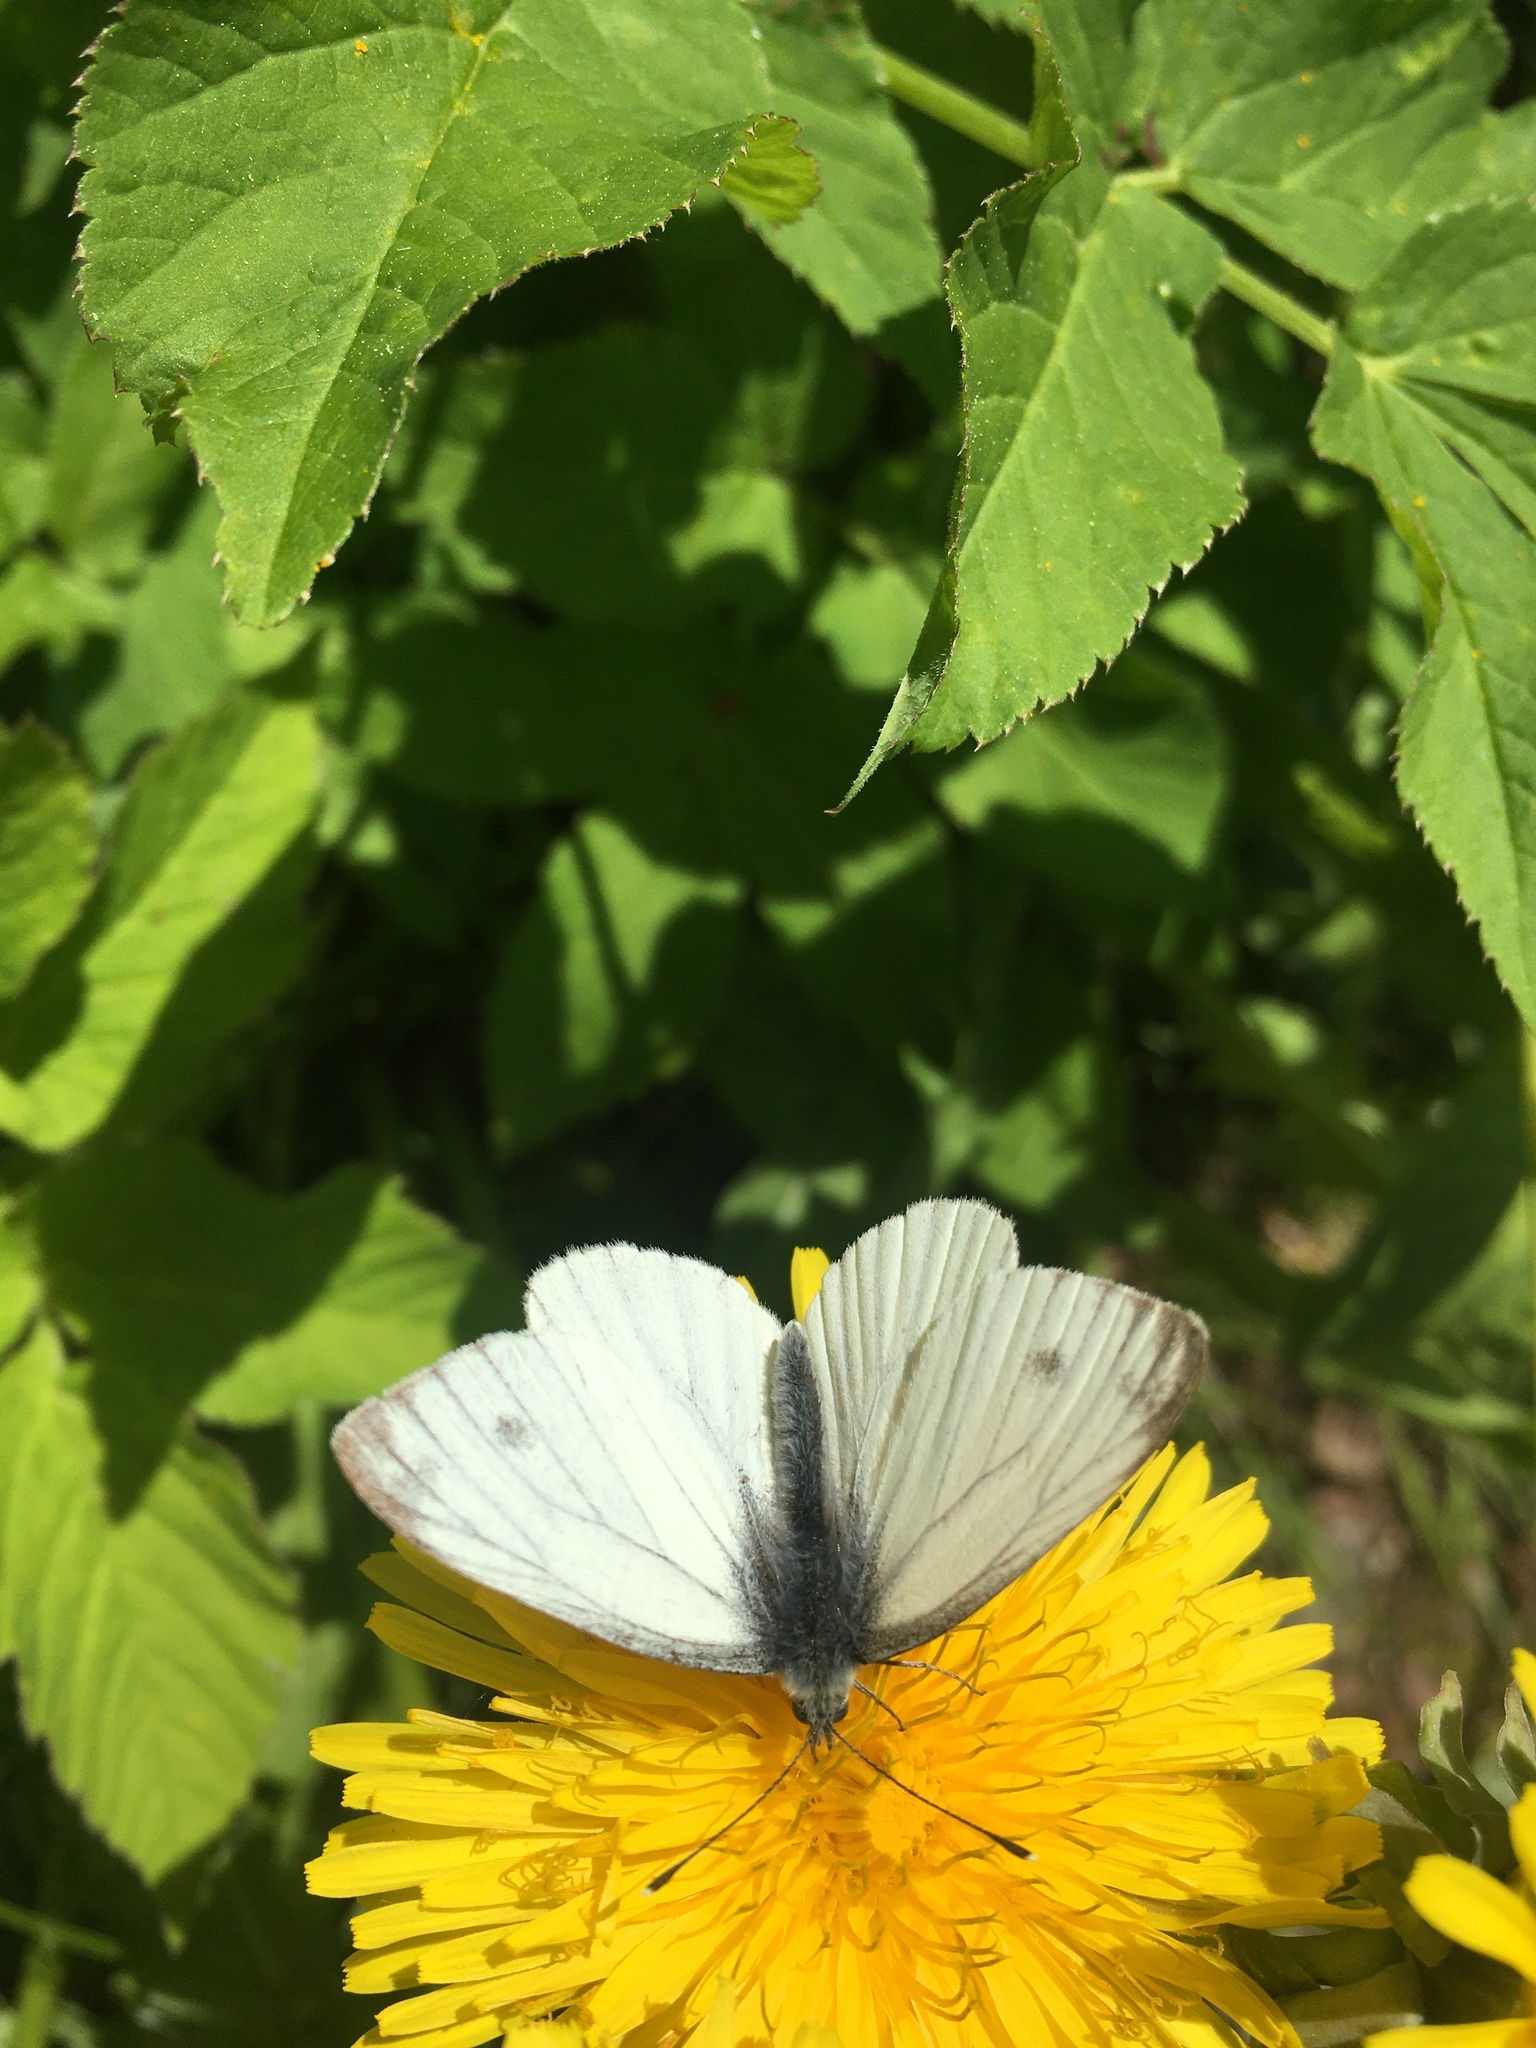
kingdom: Animalia
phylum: Arthropoda
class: Insecta
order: Lepidoptera
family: Pieridae
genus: Pieris
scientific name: Pieris napi
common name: Green-veined white
